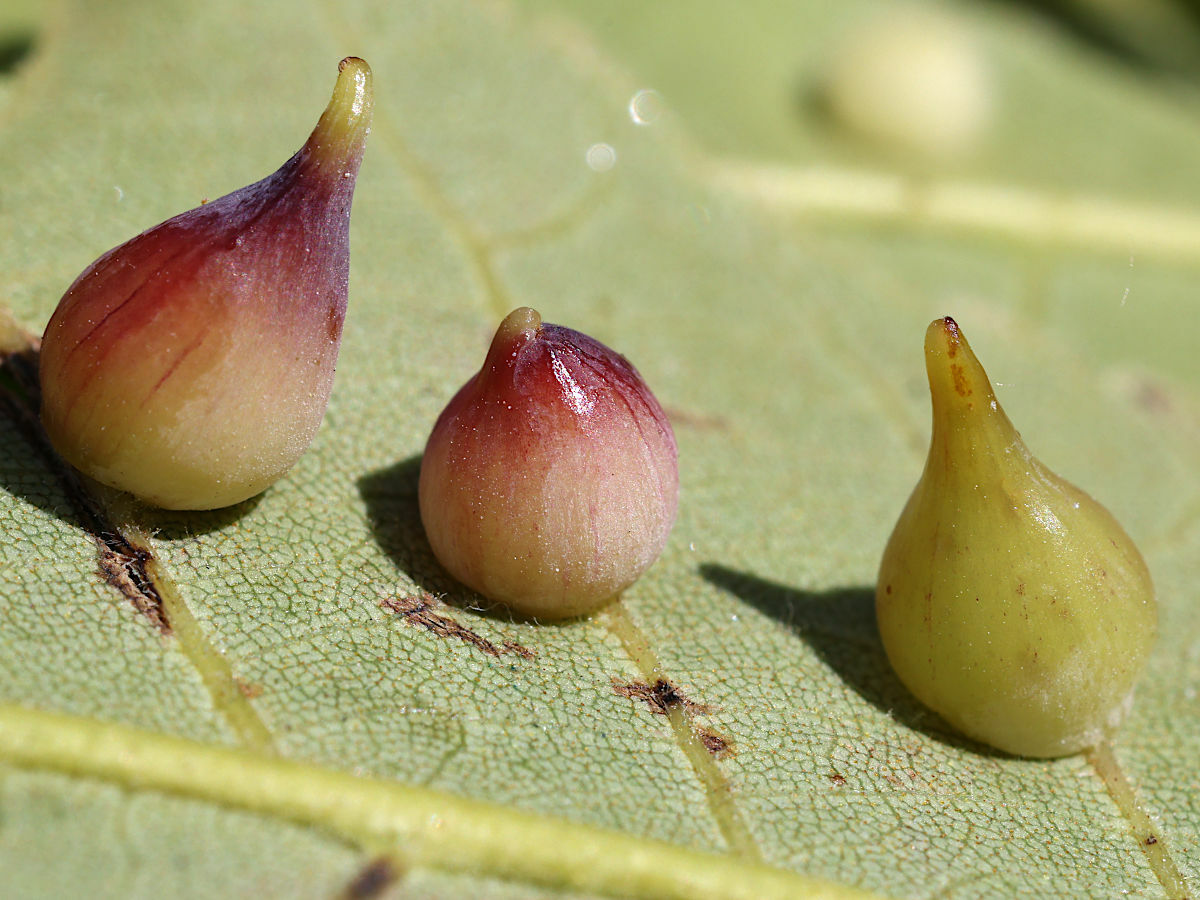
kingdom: Animalia
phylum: Arthropoda
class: Insecta
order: Diptera
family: Cecidomyiidae
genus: Caryomyia
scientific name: Caryomyia caryaecola
